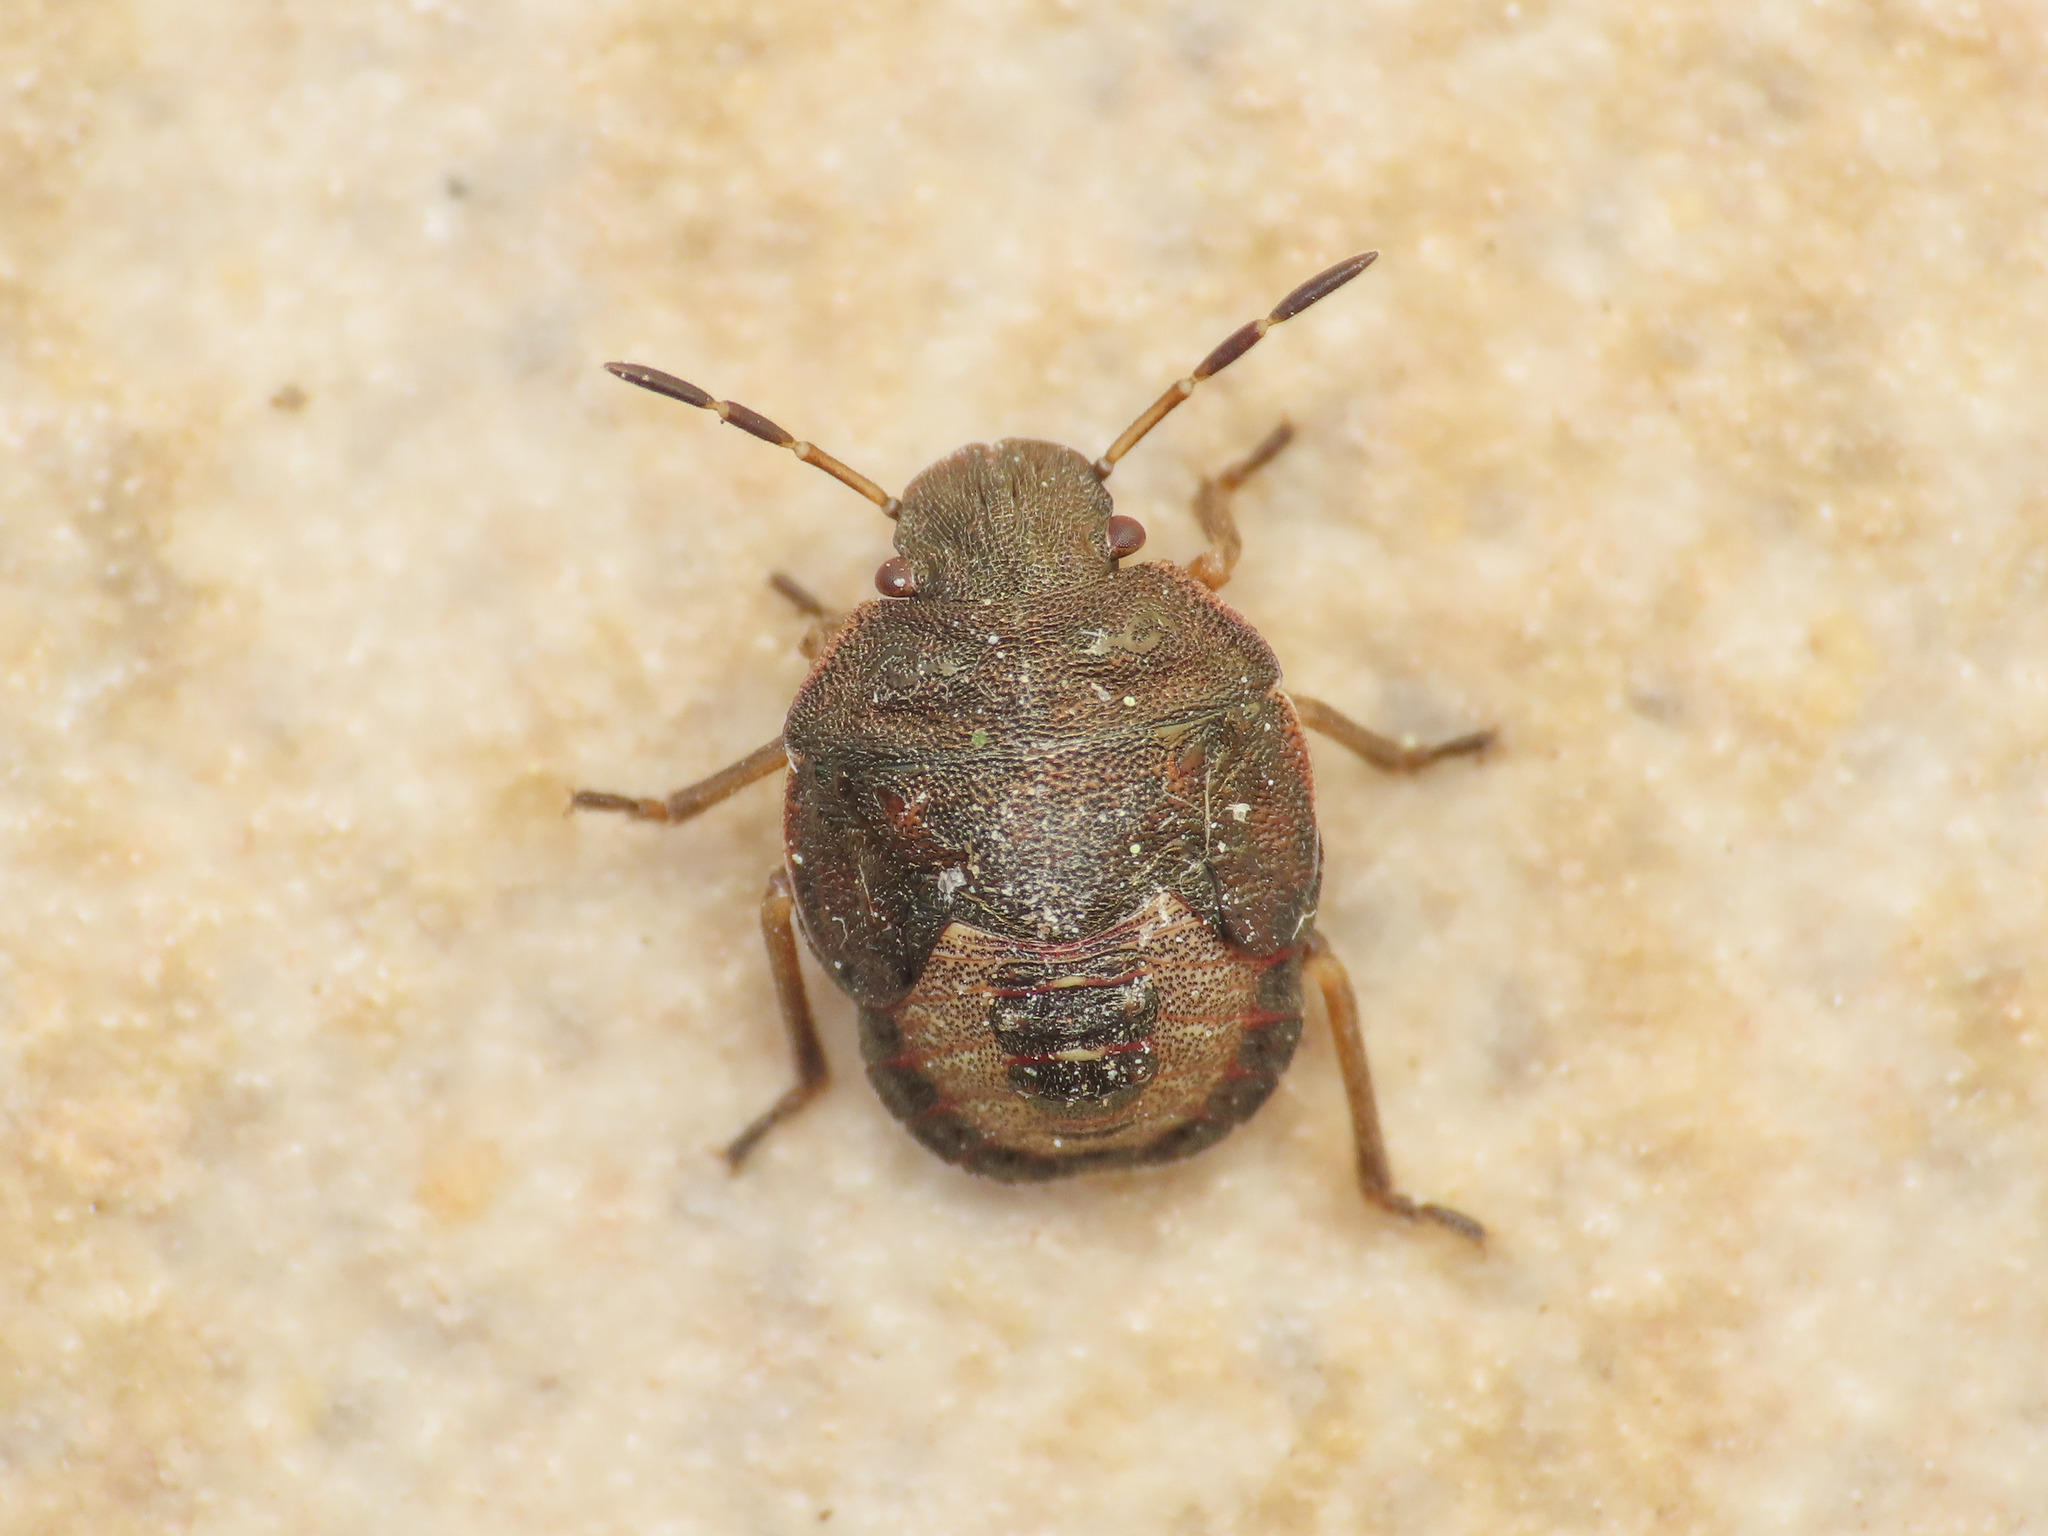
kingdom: Animalia
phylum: Arthropoda
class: Insecta
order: Hemiptera
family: Pentatomidae
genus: Holcostethus
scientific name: Holcostethus strictus
